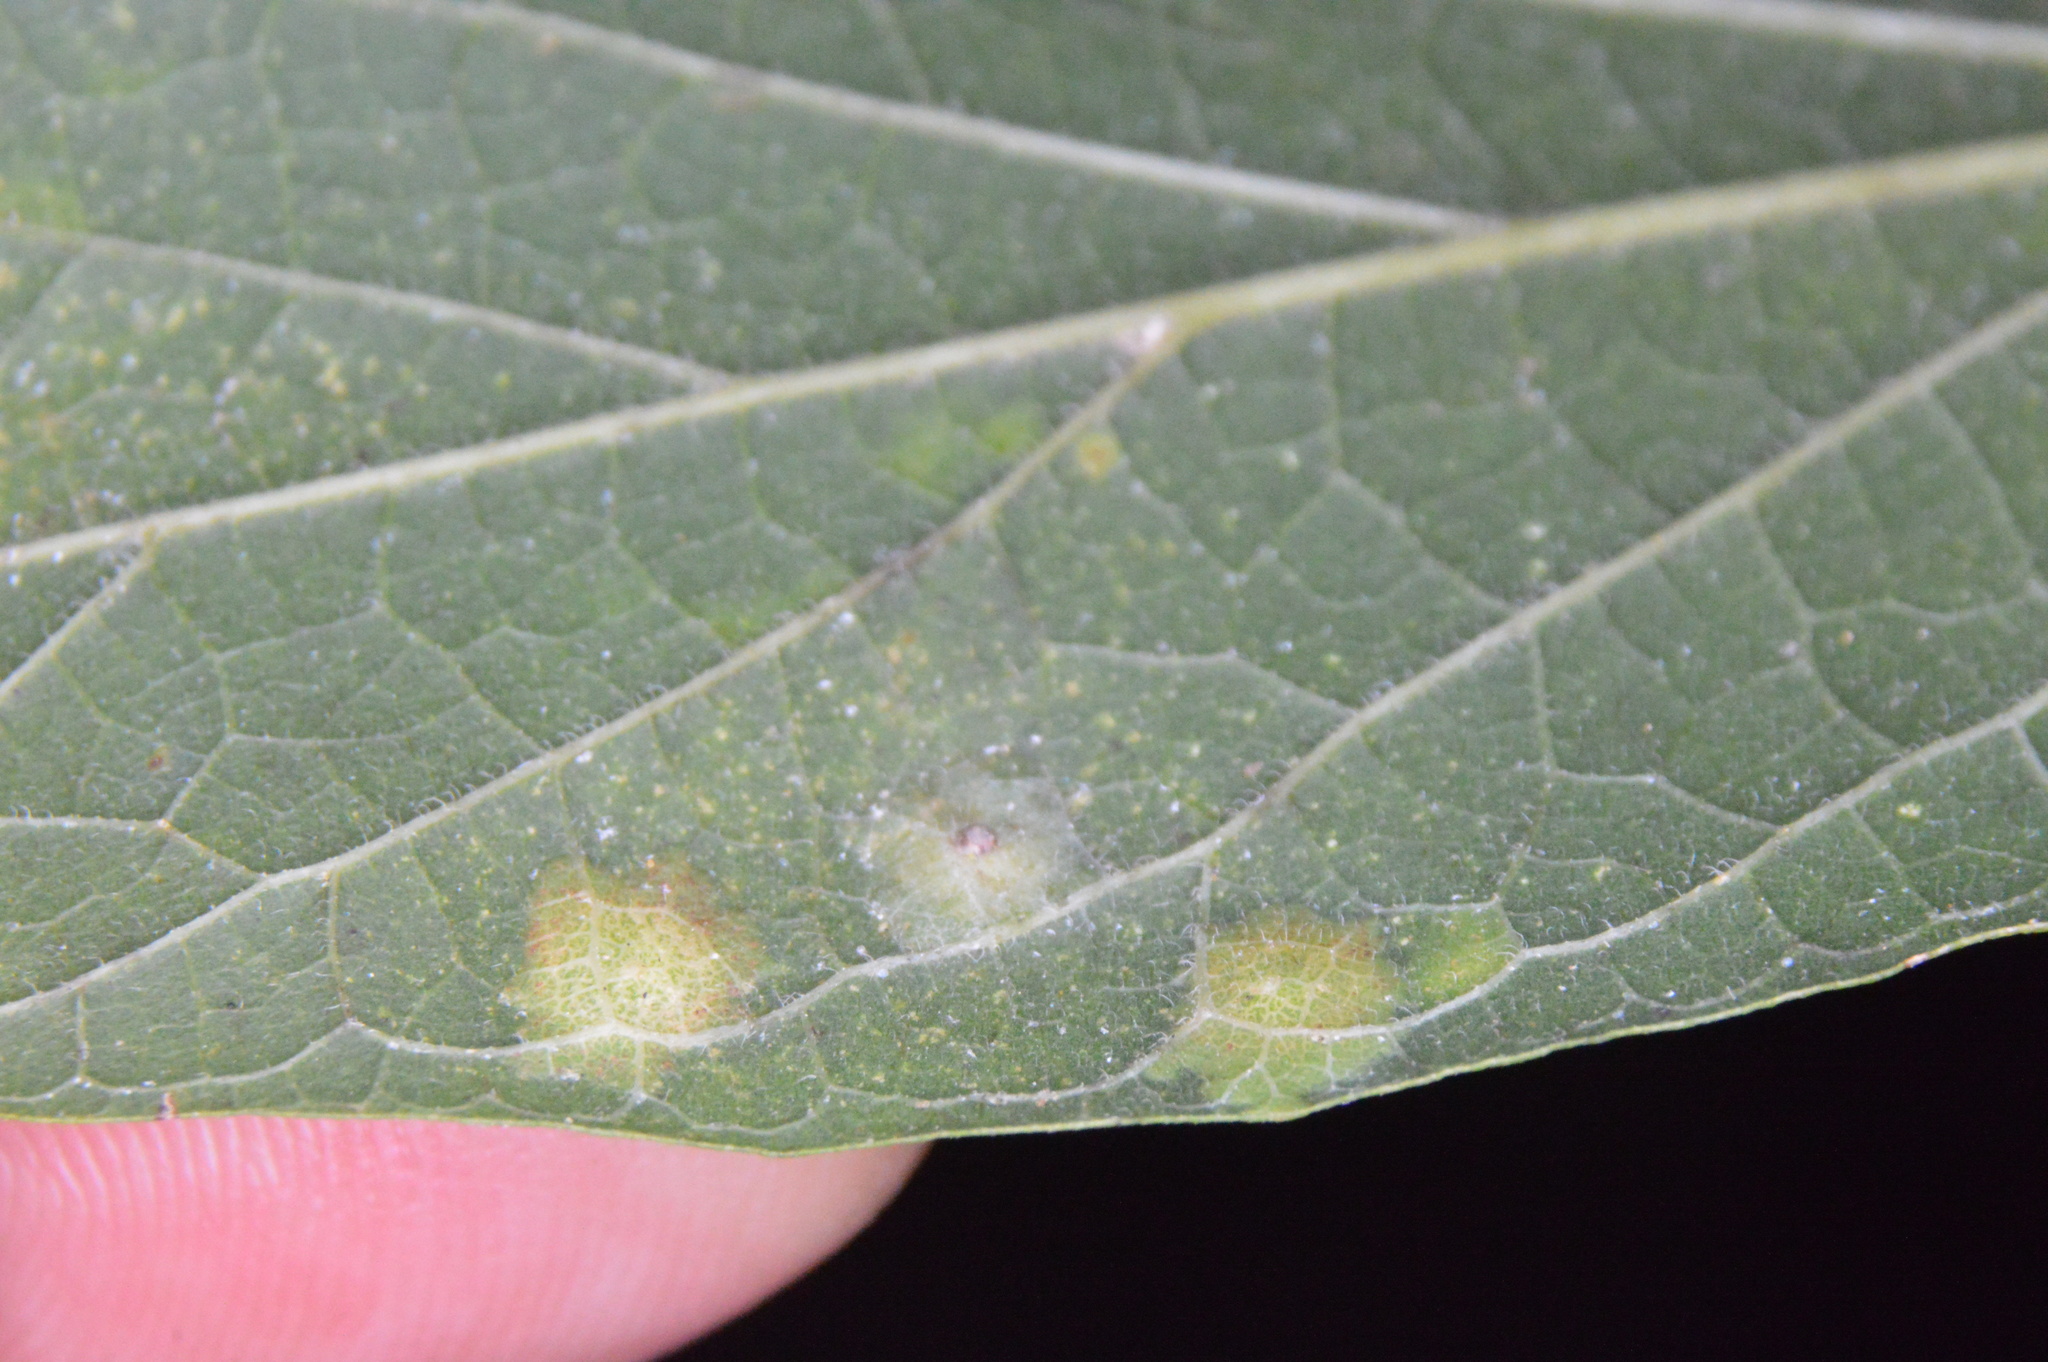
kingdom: Animalia
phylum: Arthropoda
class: Insecta
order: Hemiptera
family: Aphalaridae
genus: Pachypsylla
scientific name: Pachypsylla celtidisvesicula
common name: Hackberry blister gall psyllid
